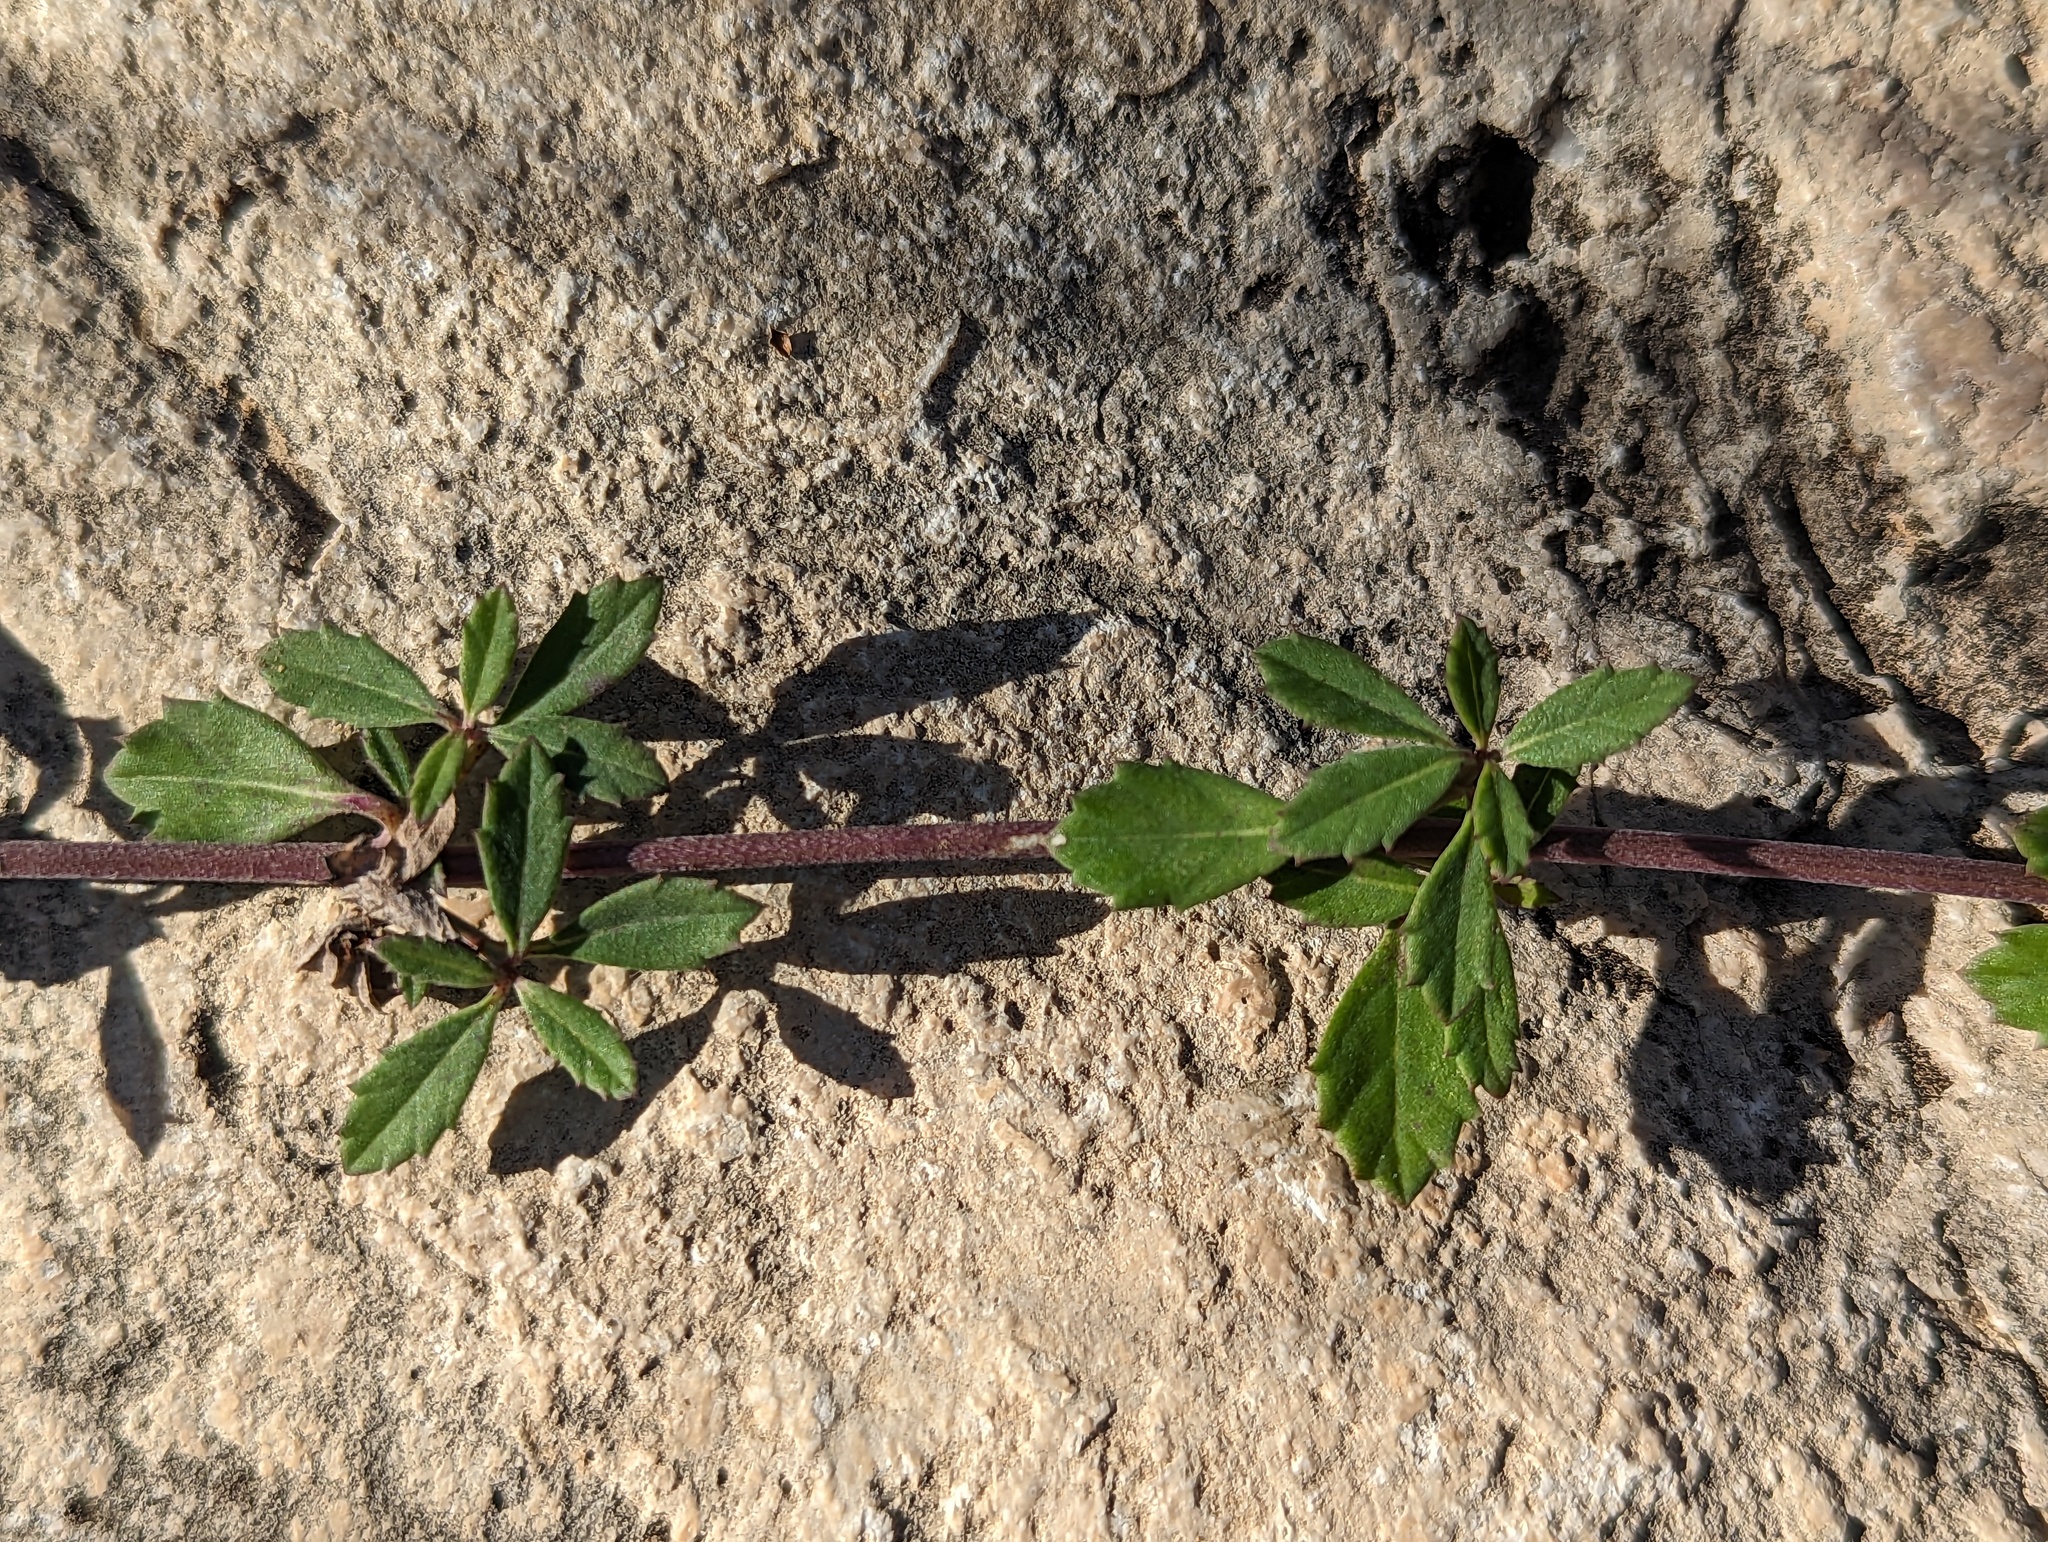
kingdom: Plantae
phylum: Tracheophyta
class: Magnoliopsida
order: Lamiales
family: Verbenaceae
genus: Phyla
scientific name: Phyla nodiflora
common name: Frogfruit
